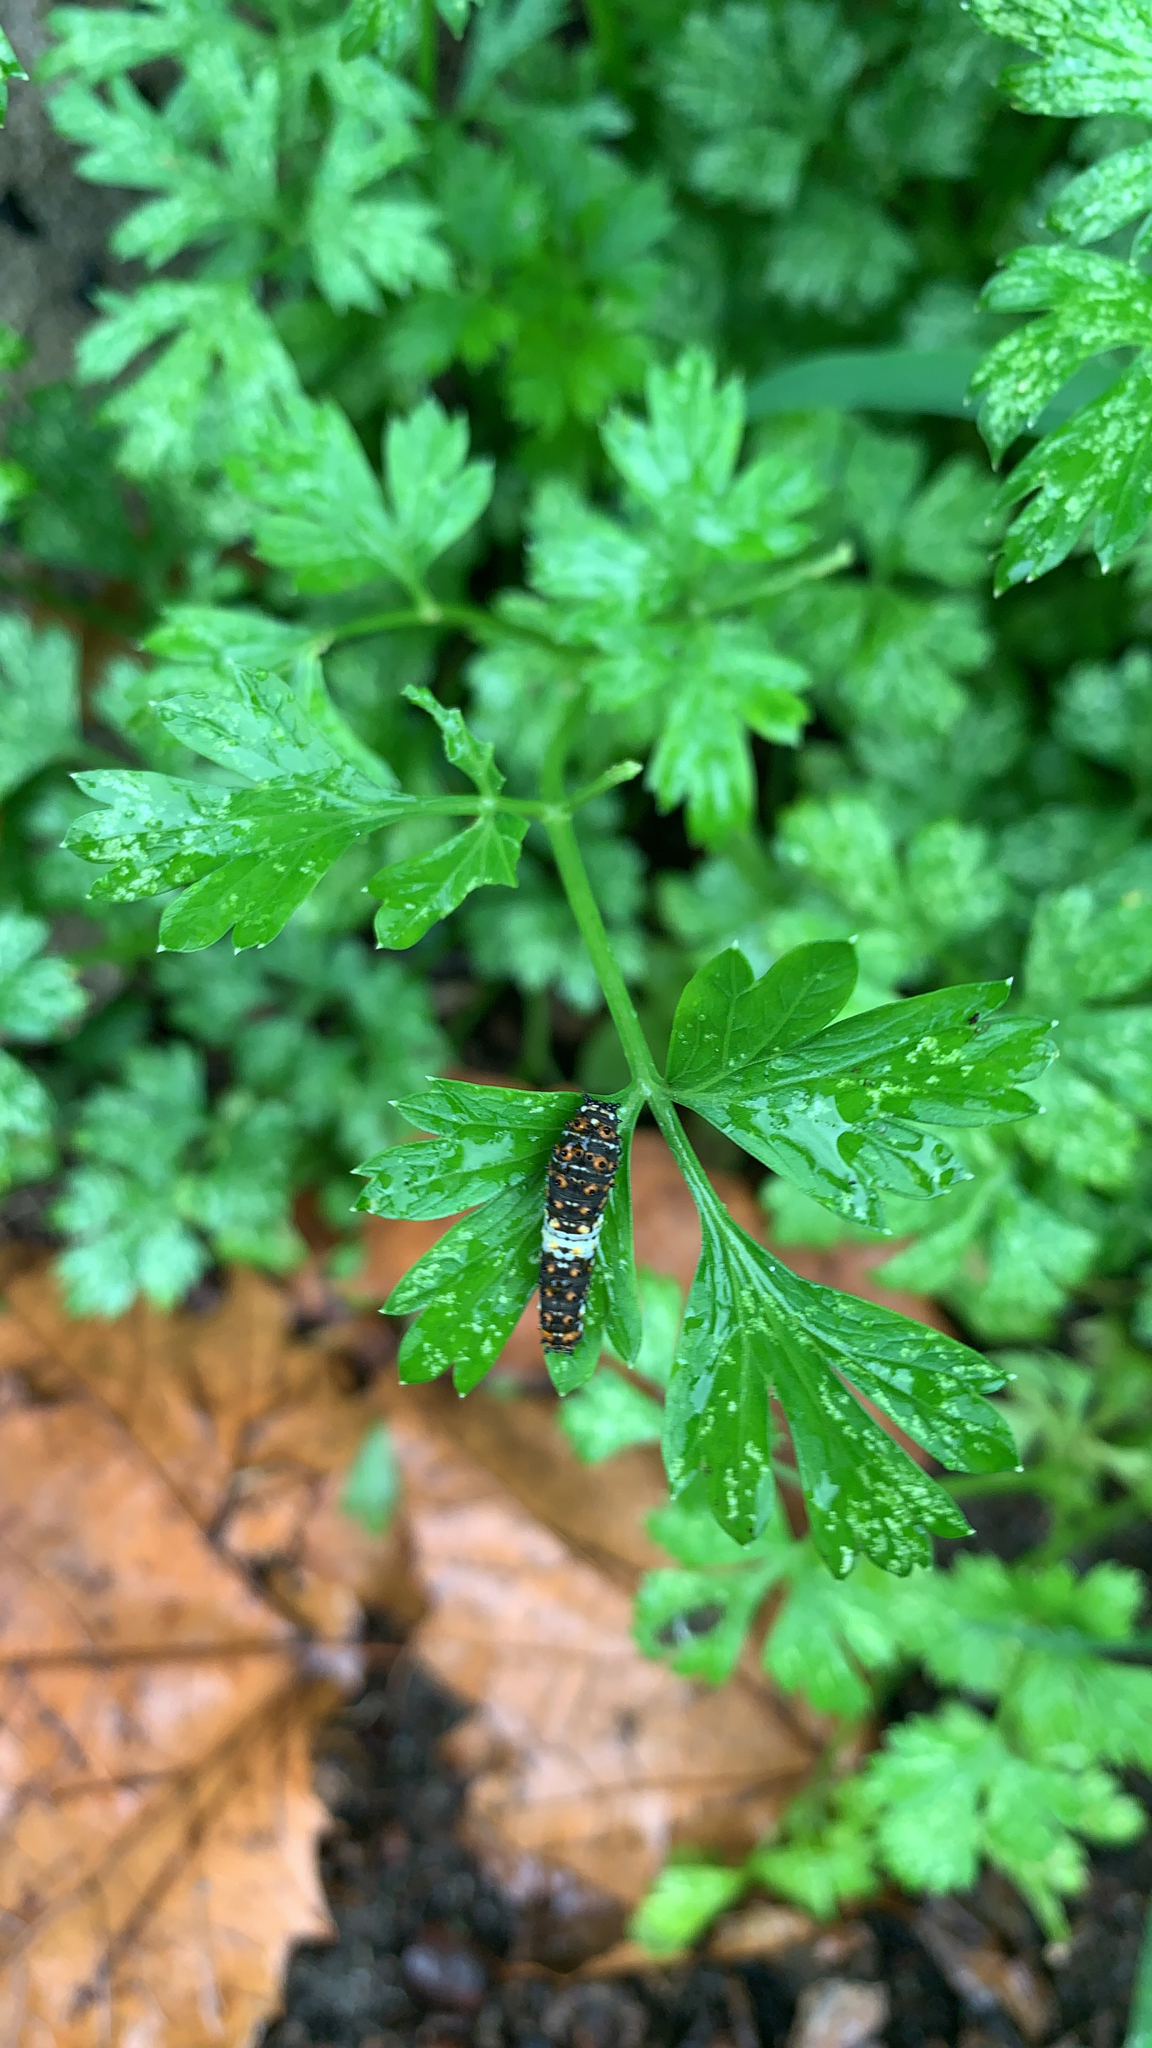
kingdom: Animalia
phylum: Arthropoda
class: Insecta
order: Lepidoptera
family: Papilionidae
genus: Papilio
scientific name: Papilio polyxenes
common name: Black swallowtail
